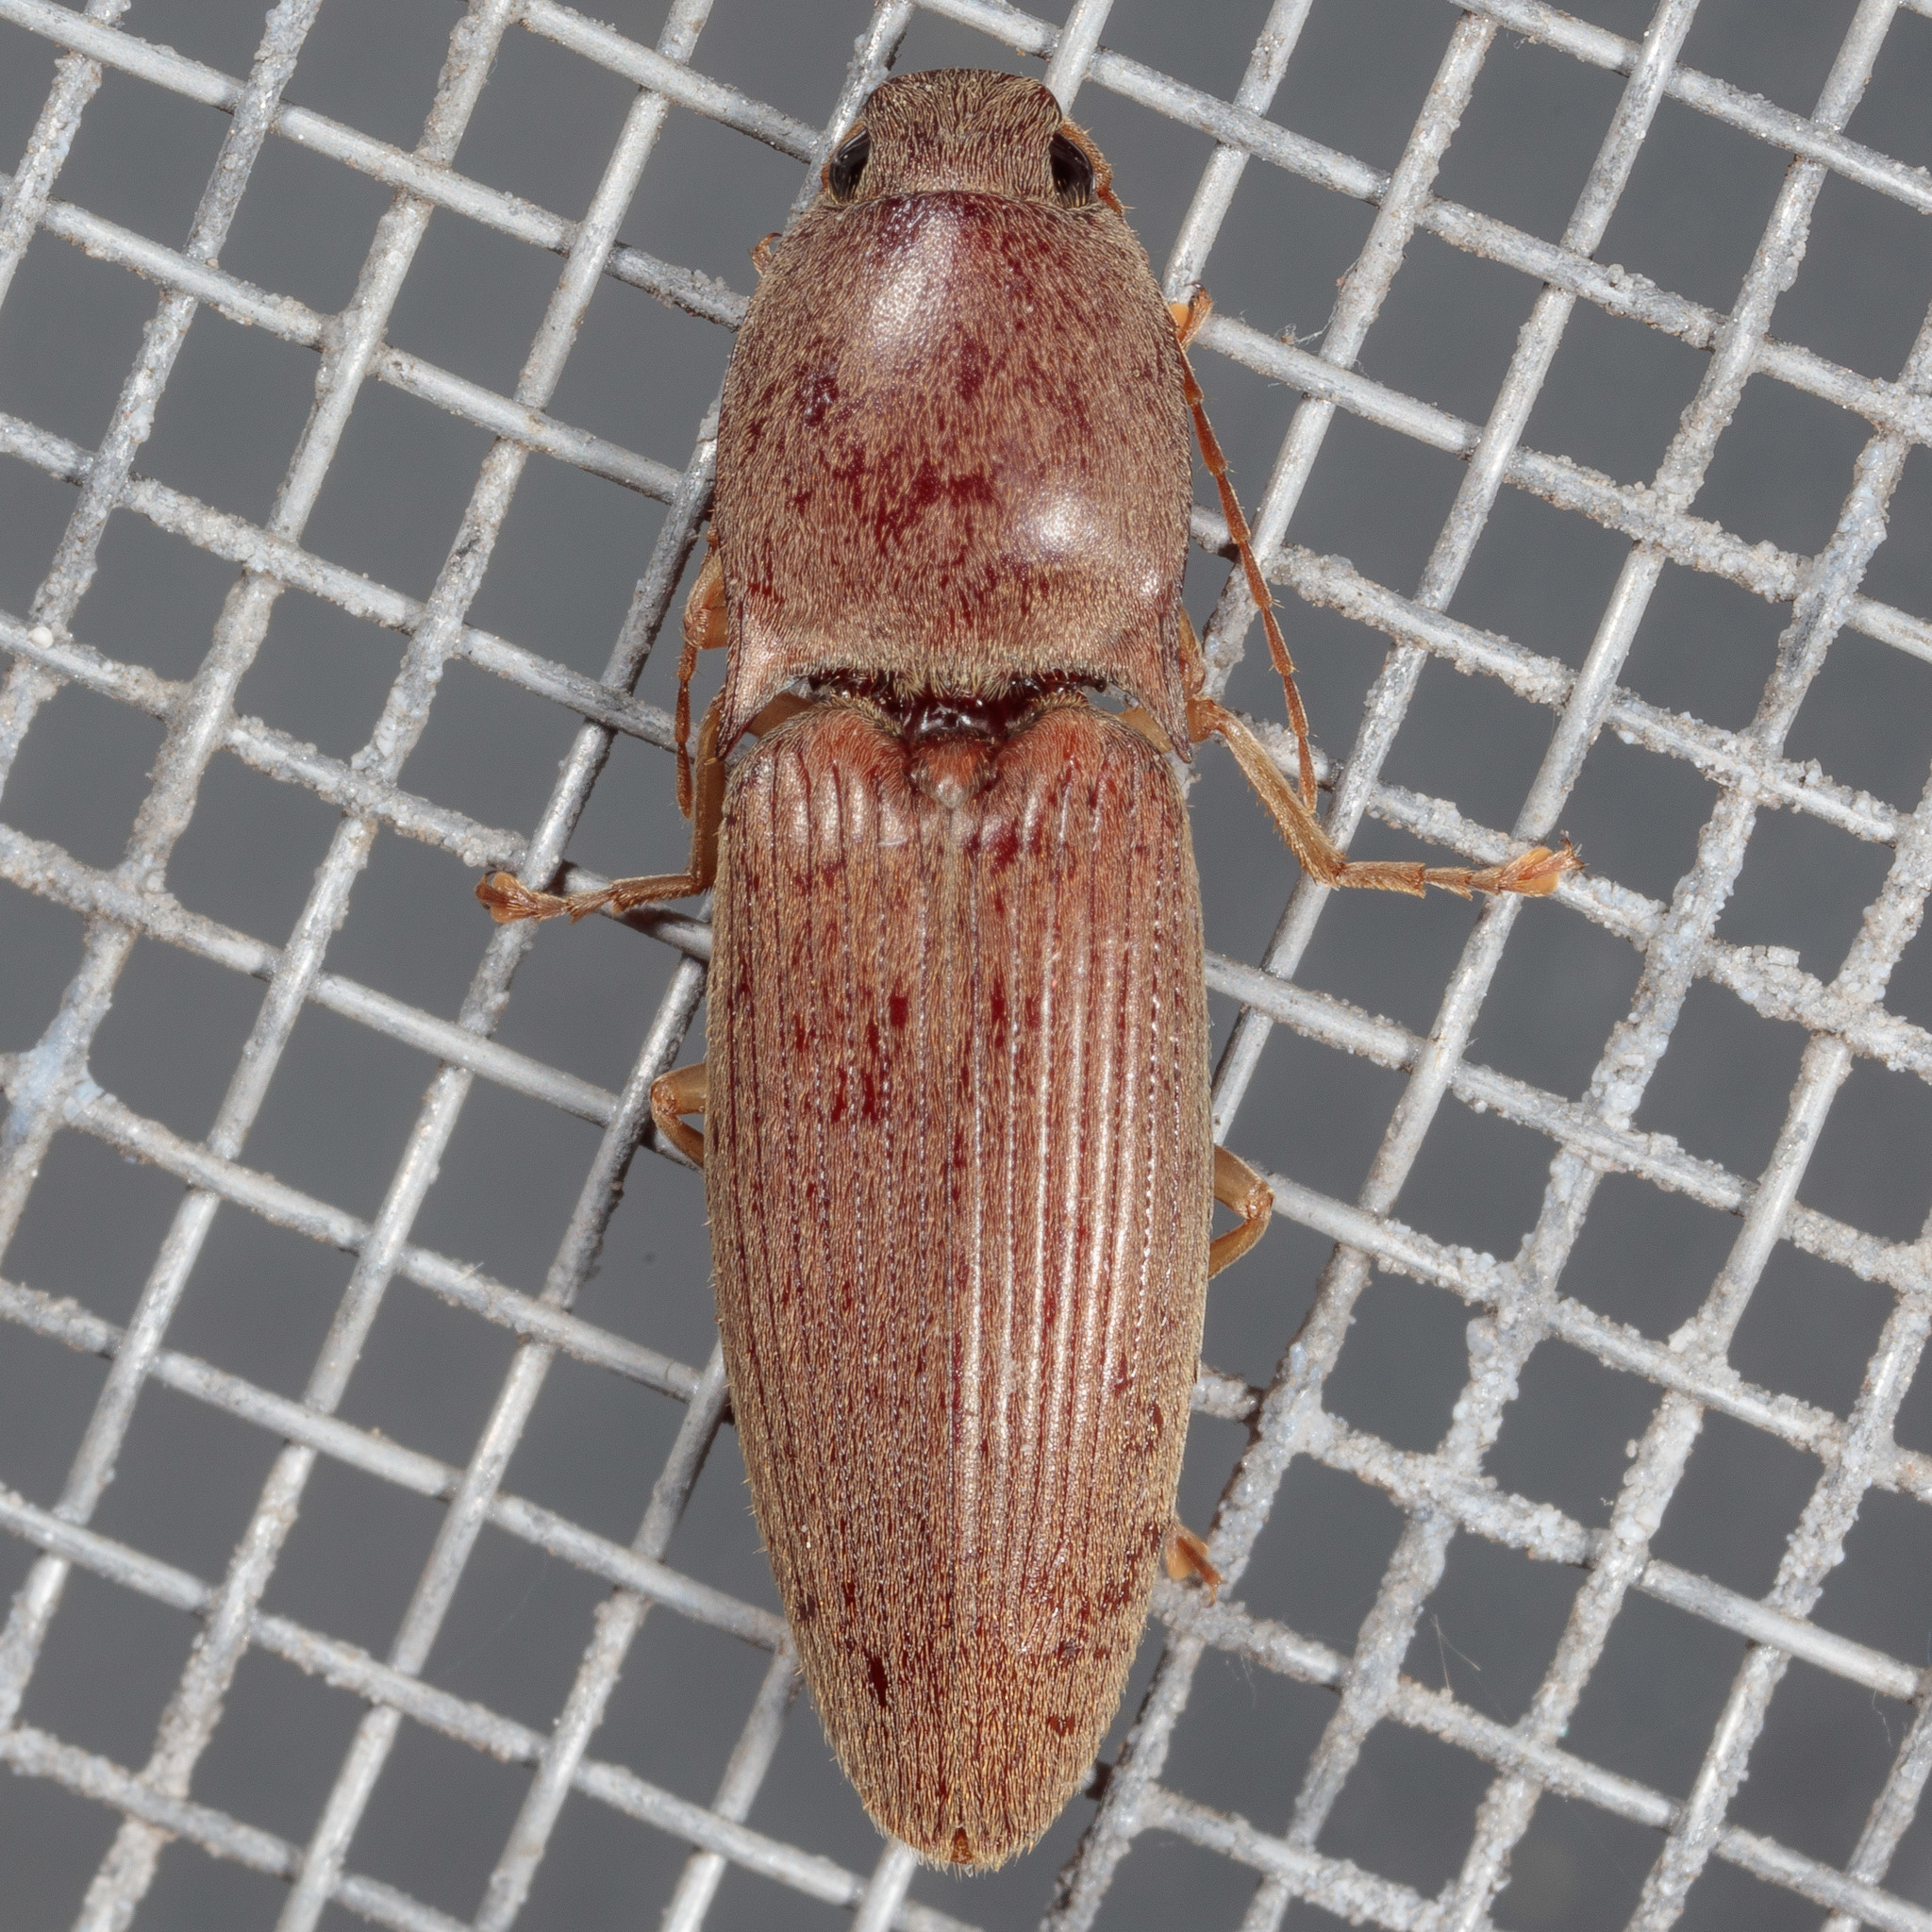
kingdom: Animalia
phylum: Arthropoda
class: Insecta
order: Coleoptera
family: Elateridae
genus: Monocrepidius
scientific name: Monocrepidius lividus
